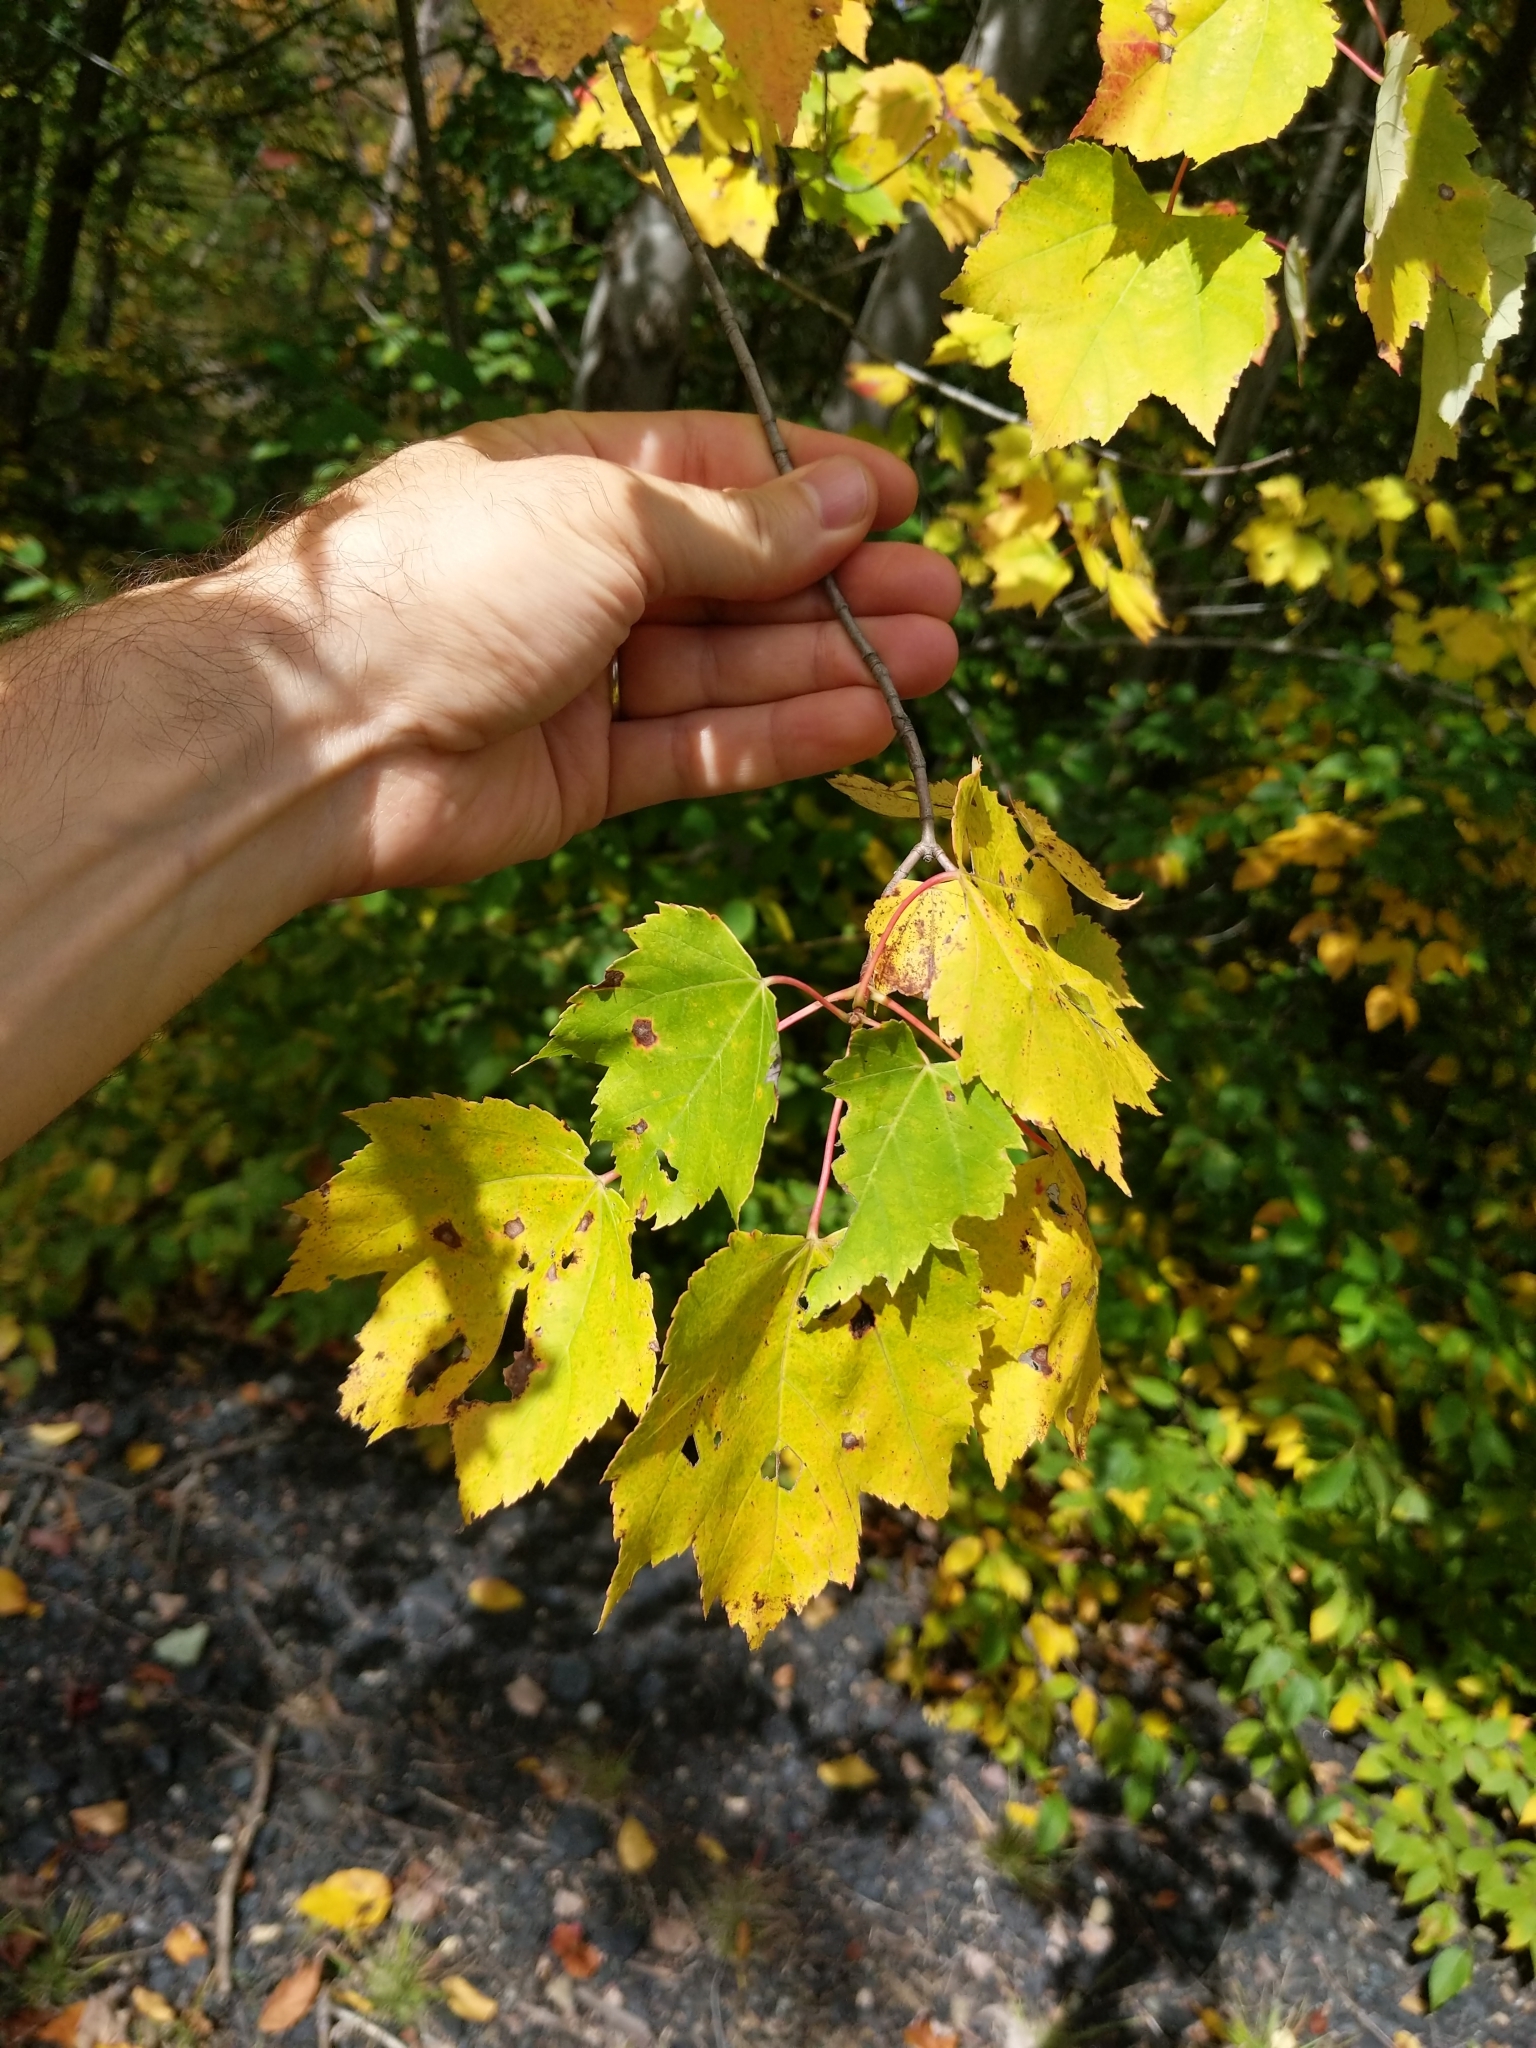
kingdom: Plantae
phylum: Tracheophyta
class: Magnoliopsida
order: Sapindales
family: Sapindaceae
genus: Acer
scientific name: Acer rubrum
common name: Red maple
